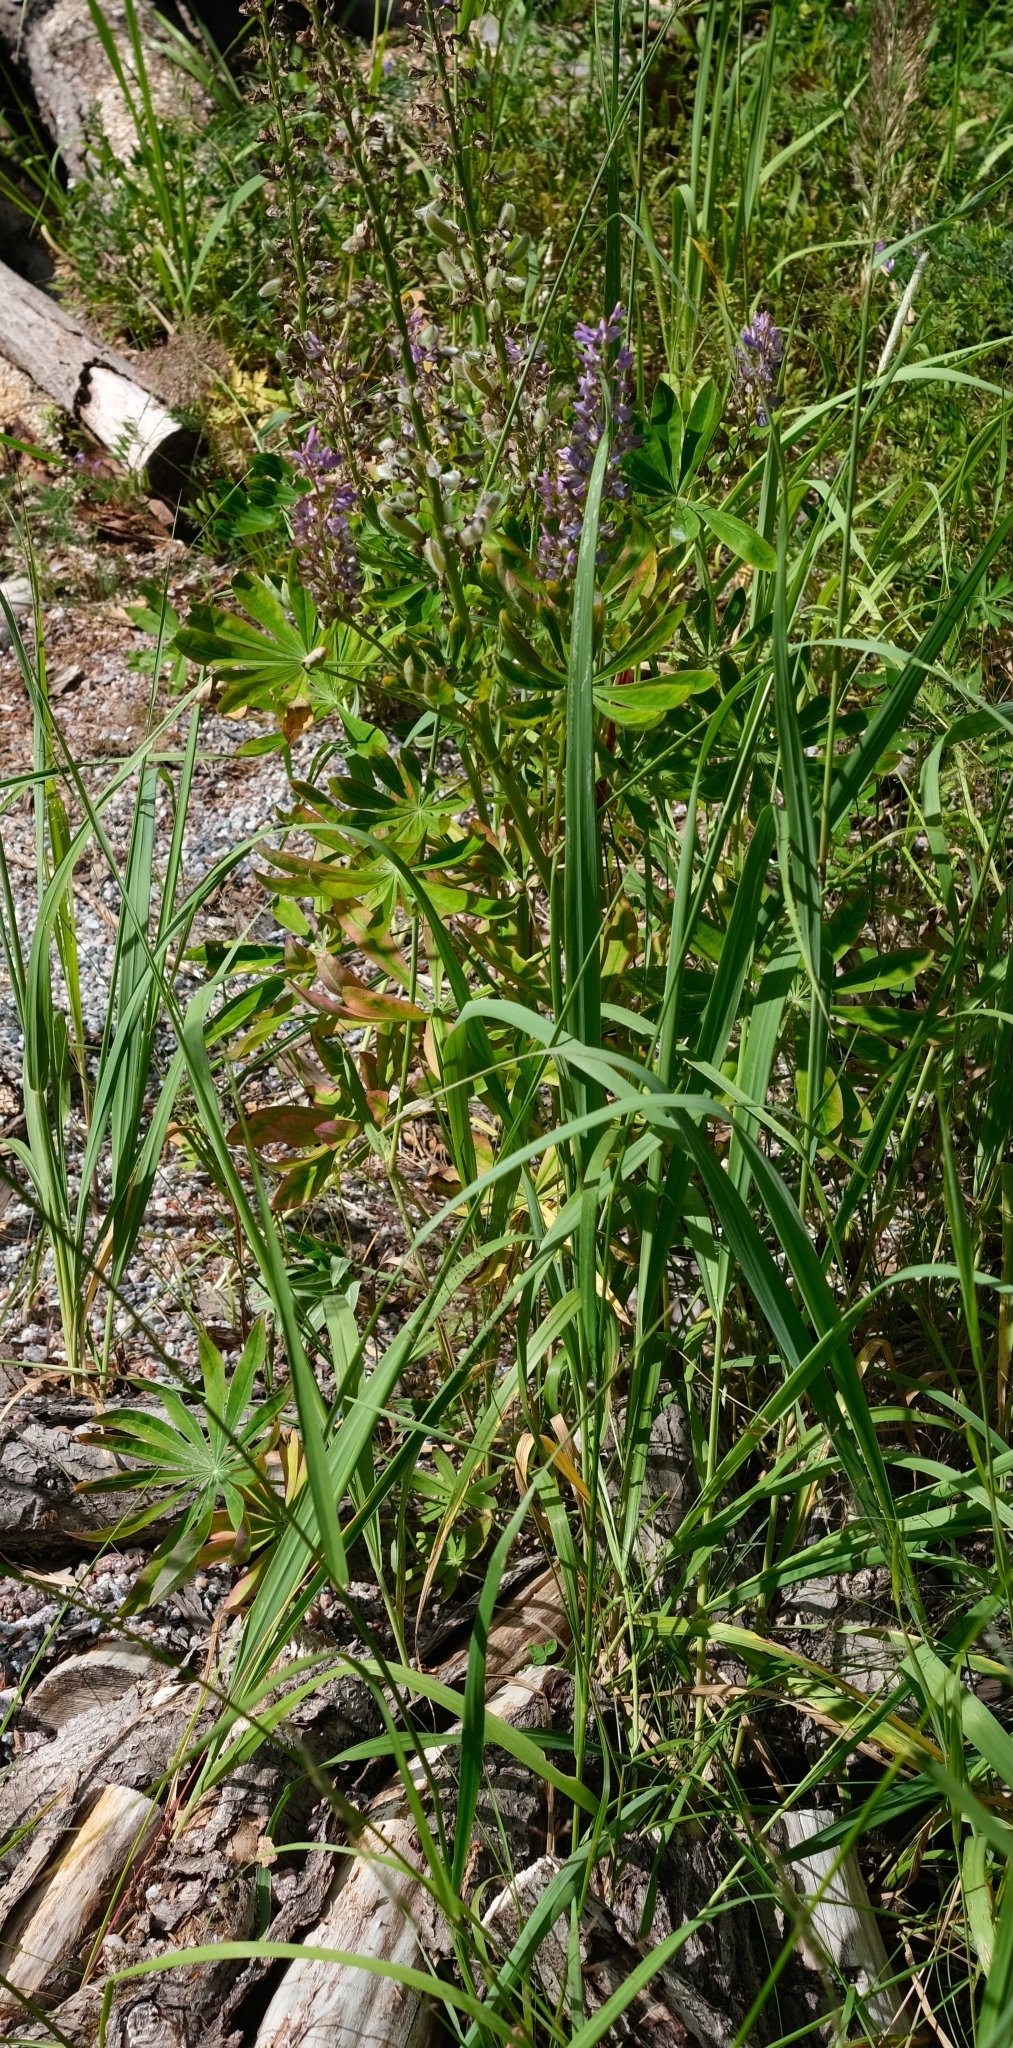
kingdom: Plantae
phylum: Tracheophyta
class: Magnoliopsida
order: Fabales
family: Fabaceae
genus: Lupinus
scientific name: Lupinus polyphyllus
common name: Garden lupin
